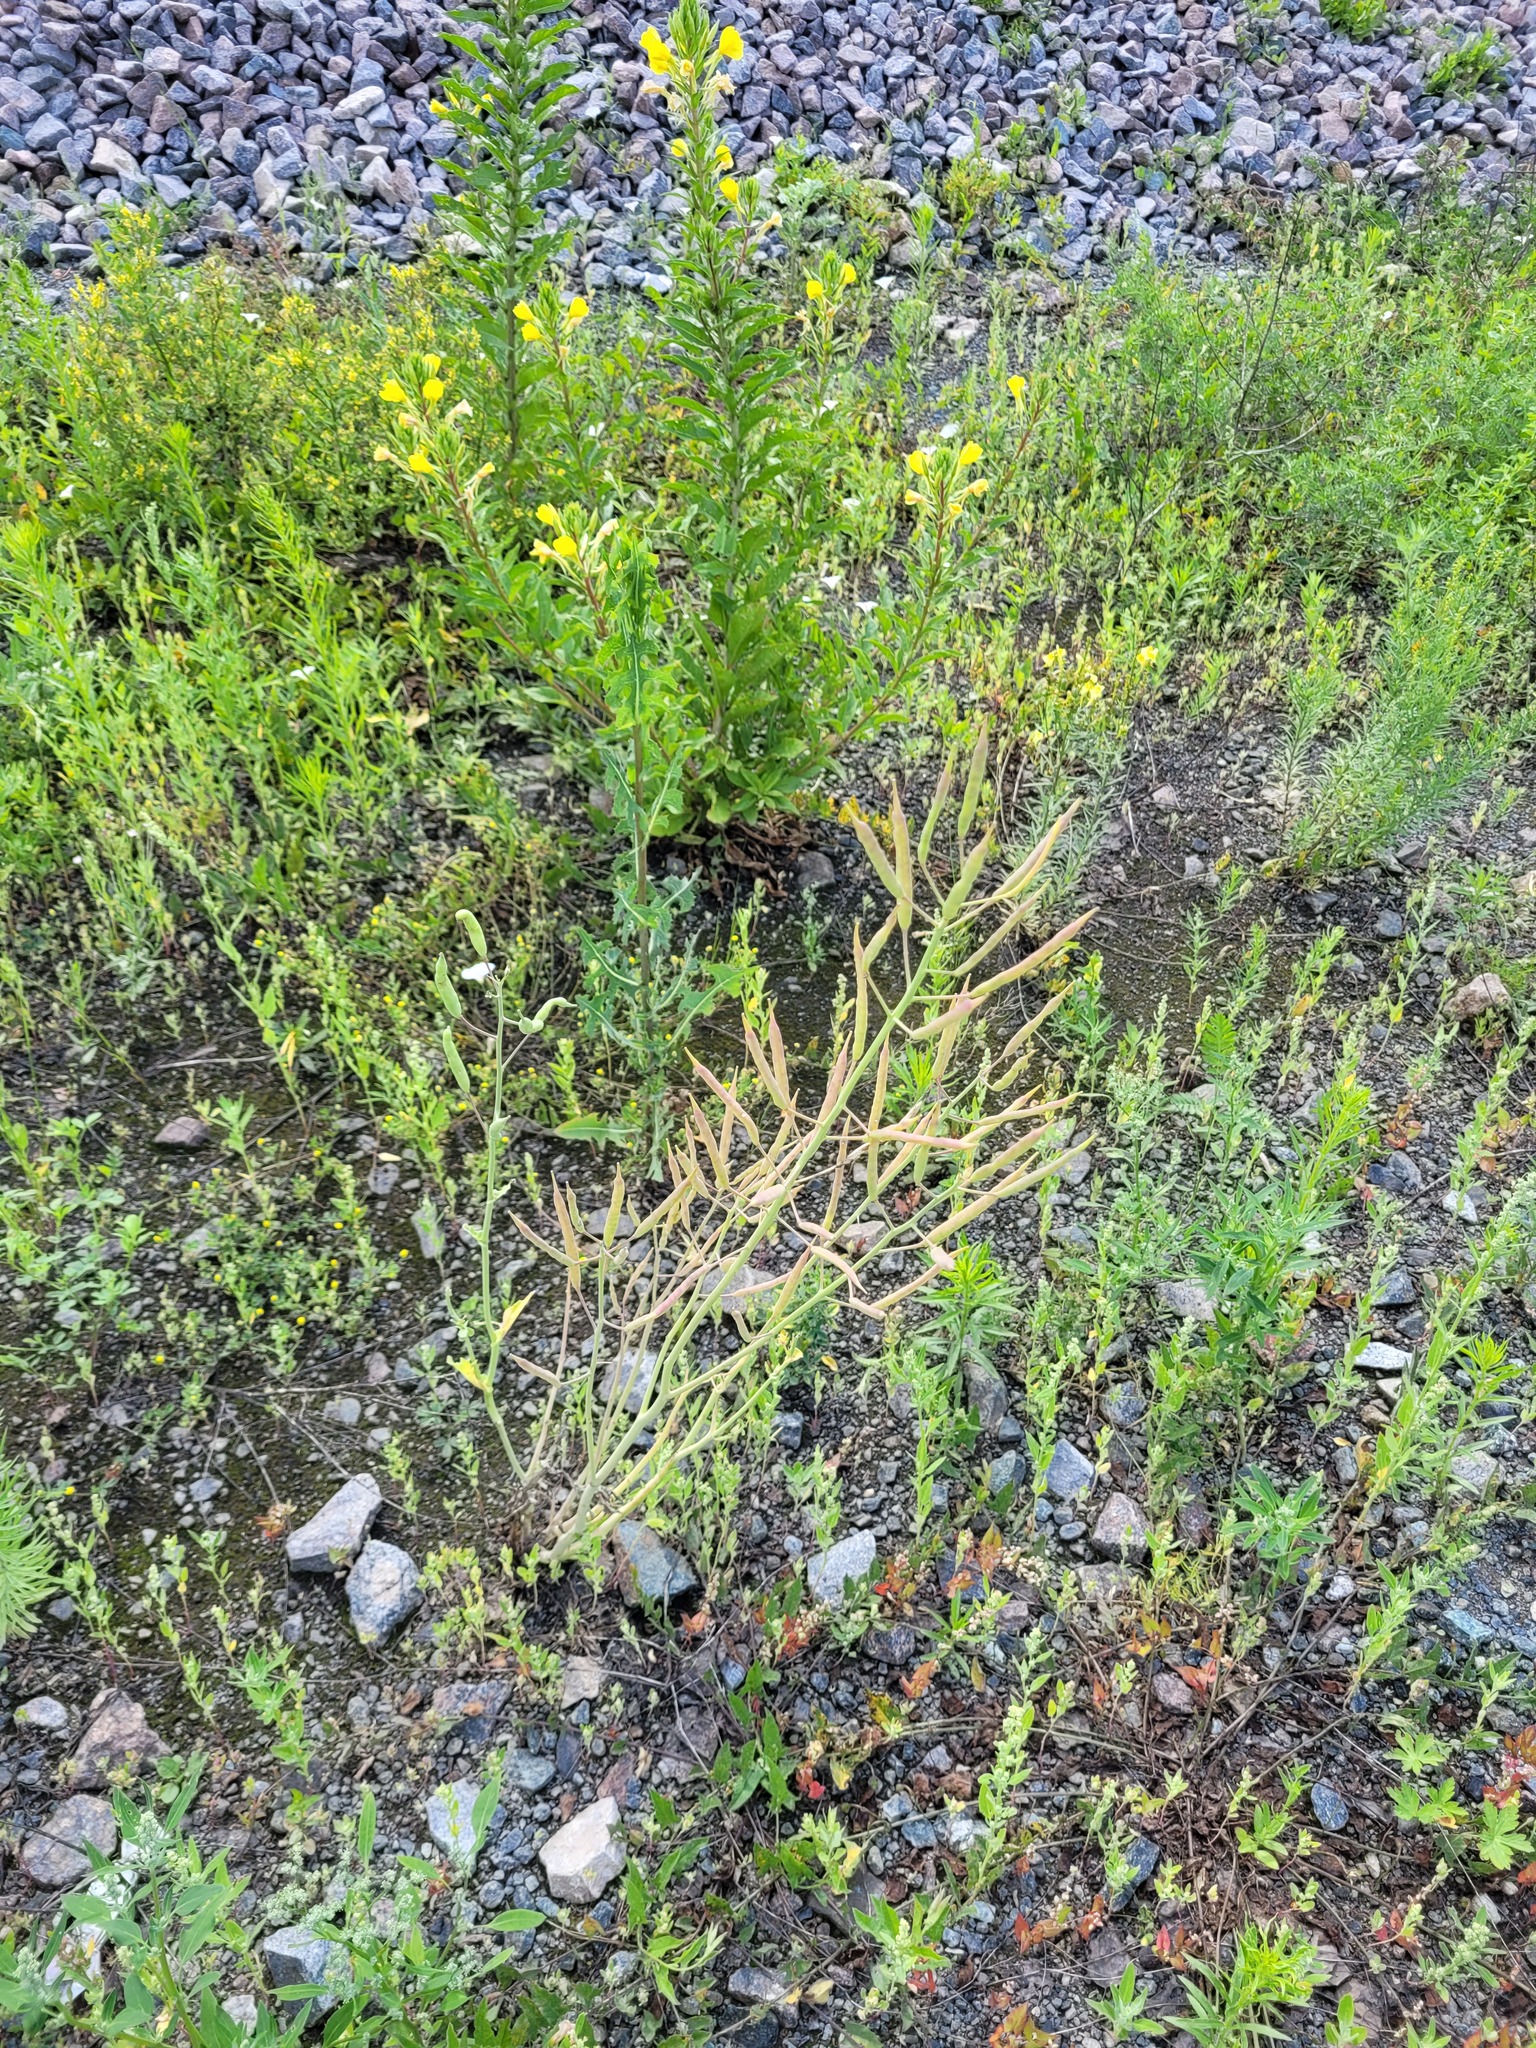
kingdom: Plantae
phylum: Tracheophyta
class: Magnoliopsida
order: Brassicales
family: Brassicaceae
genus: Brassica
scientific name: Brassica napus
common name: Rape
